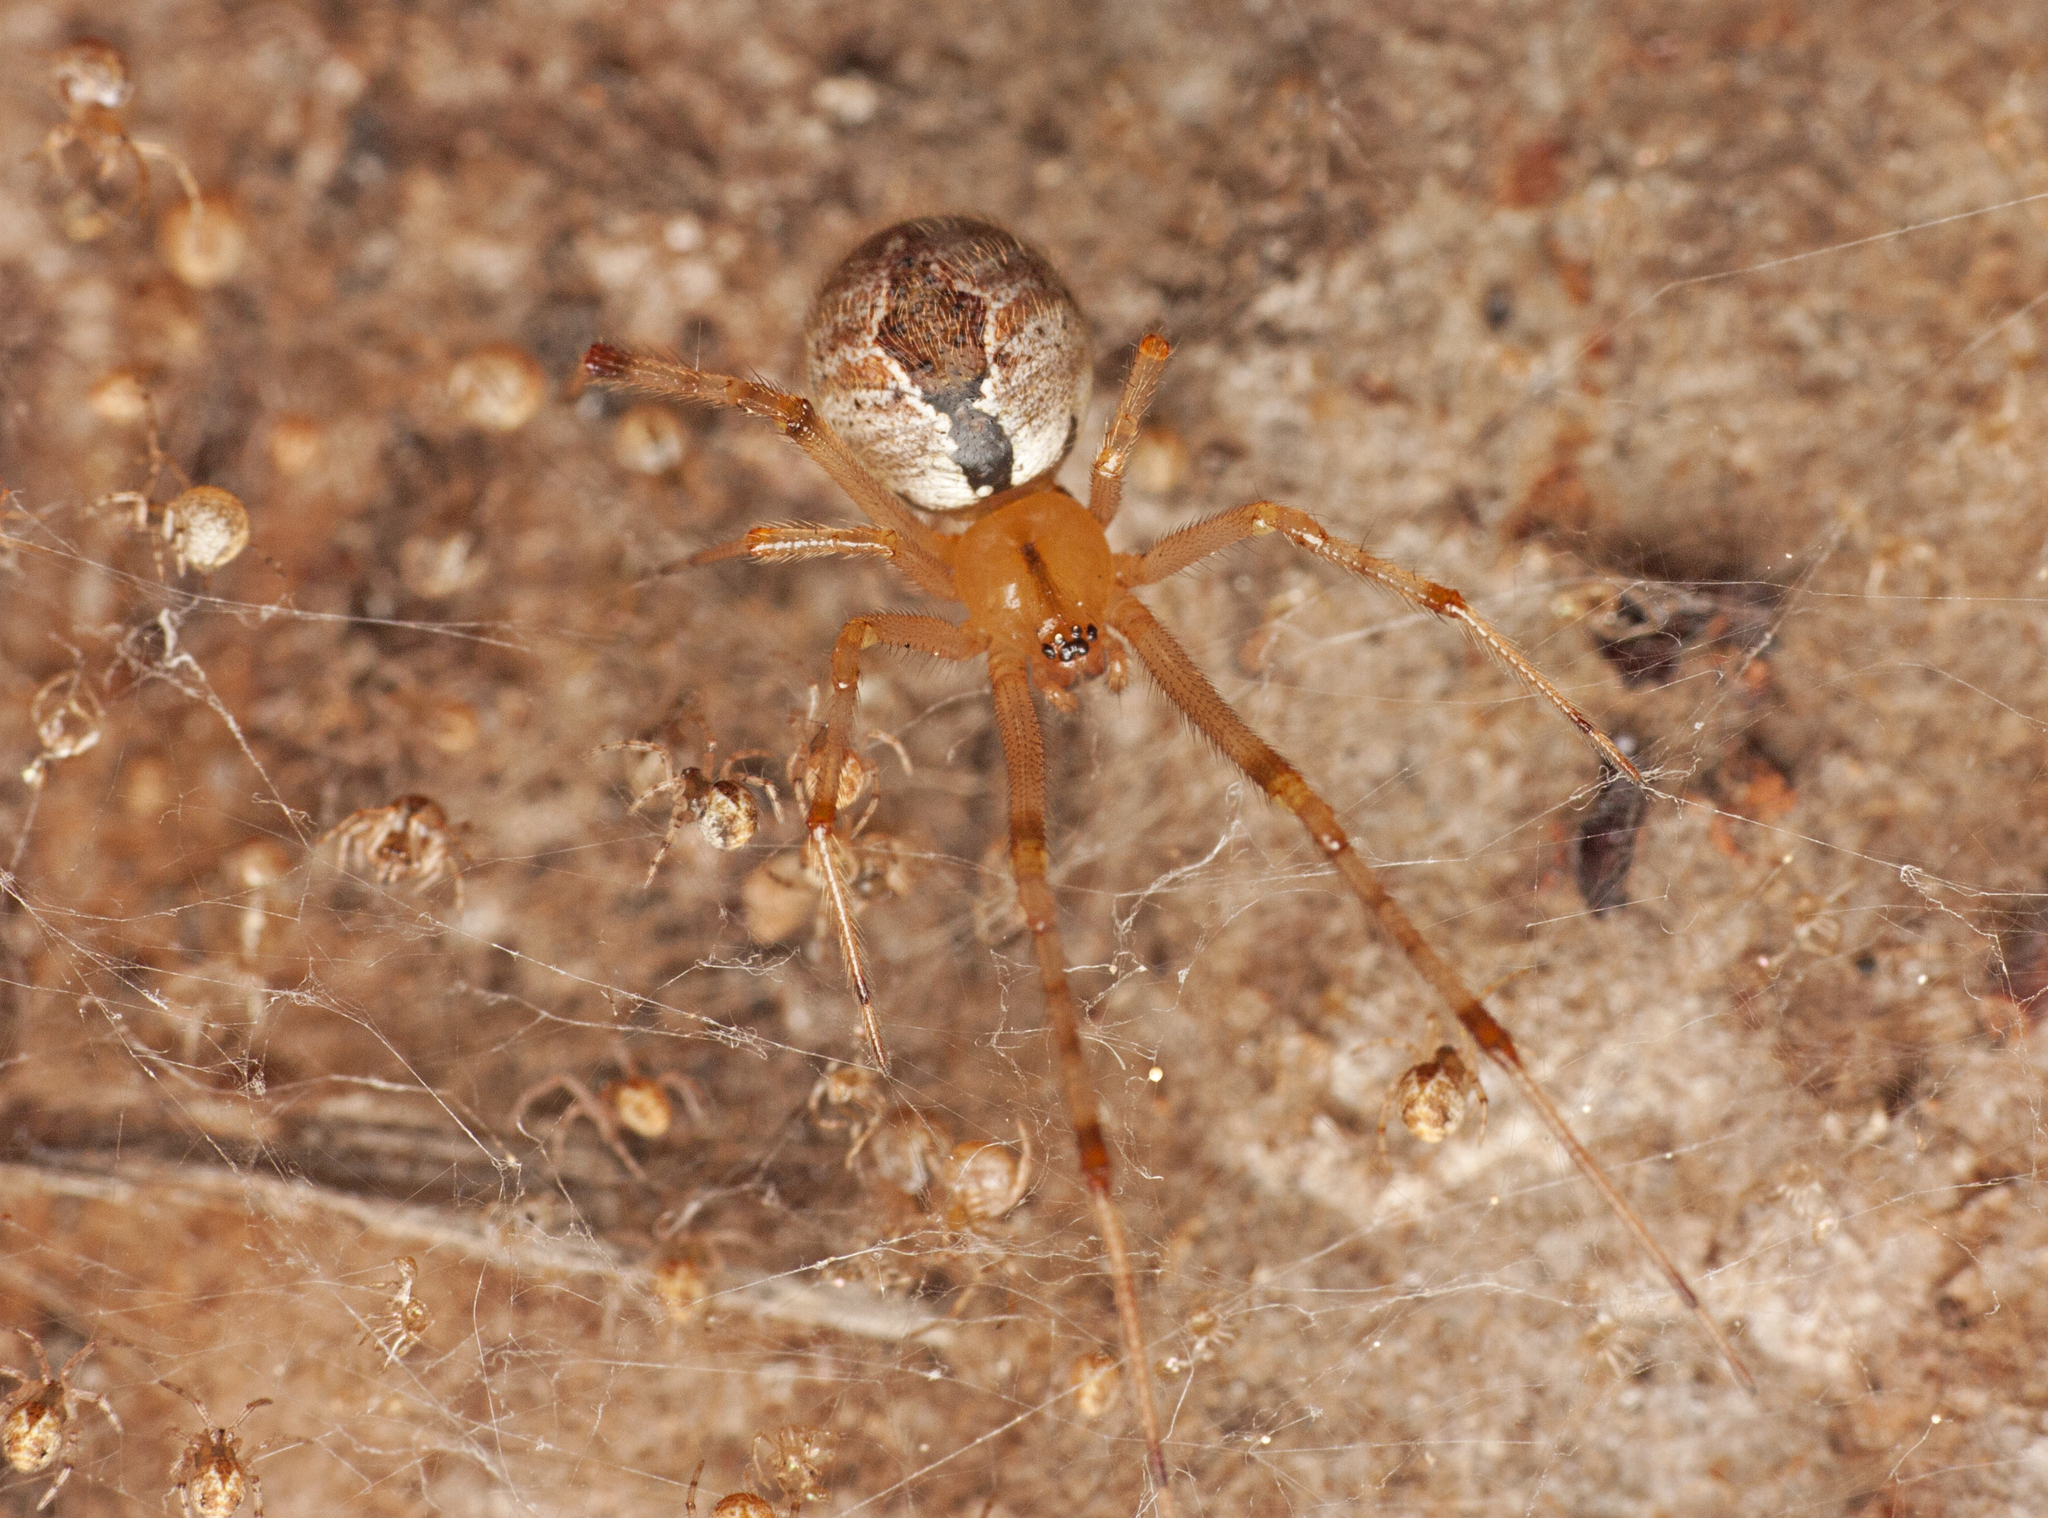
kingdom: Animalia
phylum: Arthropoda
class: Arachnida
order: Araneae
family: Theridiidae
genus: Cryptachaea
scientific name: Cryptachaea veruculata
